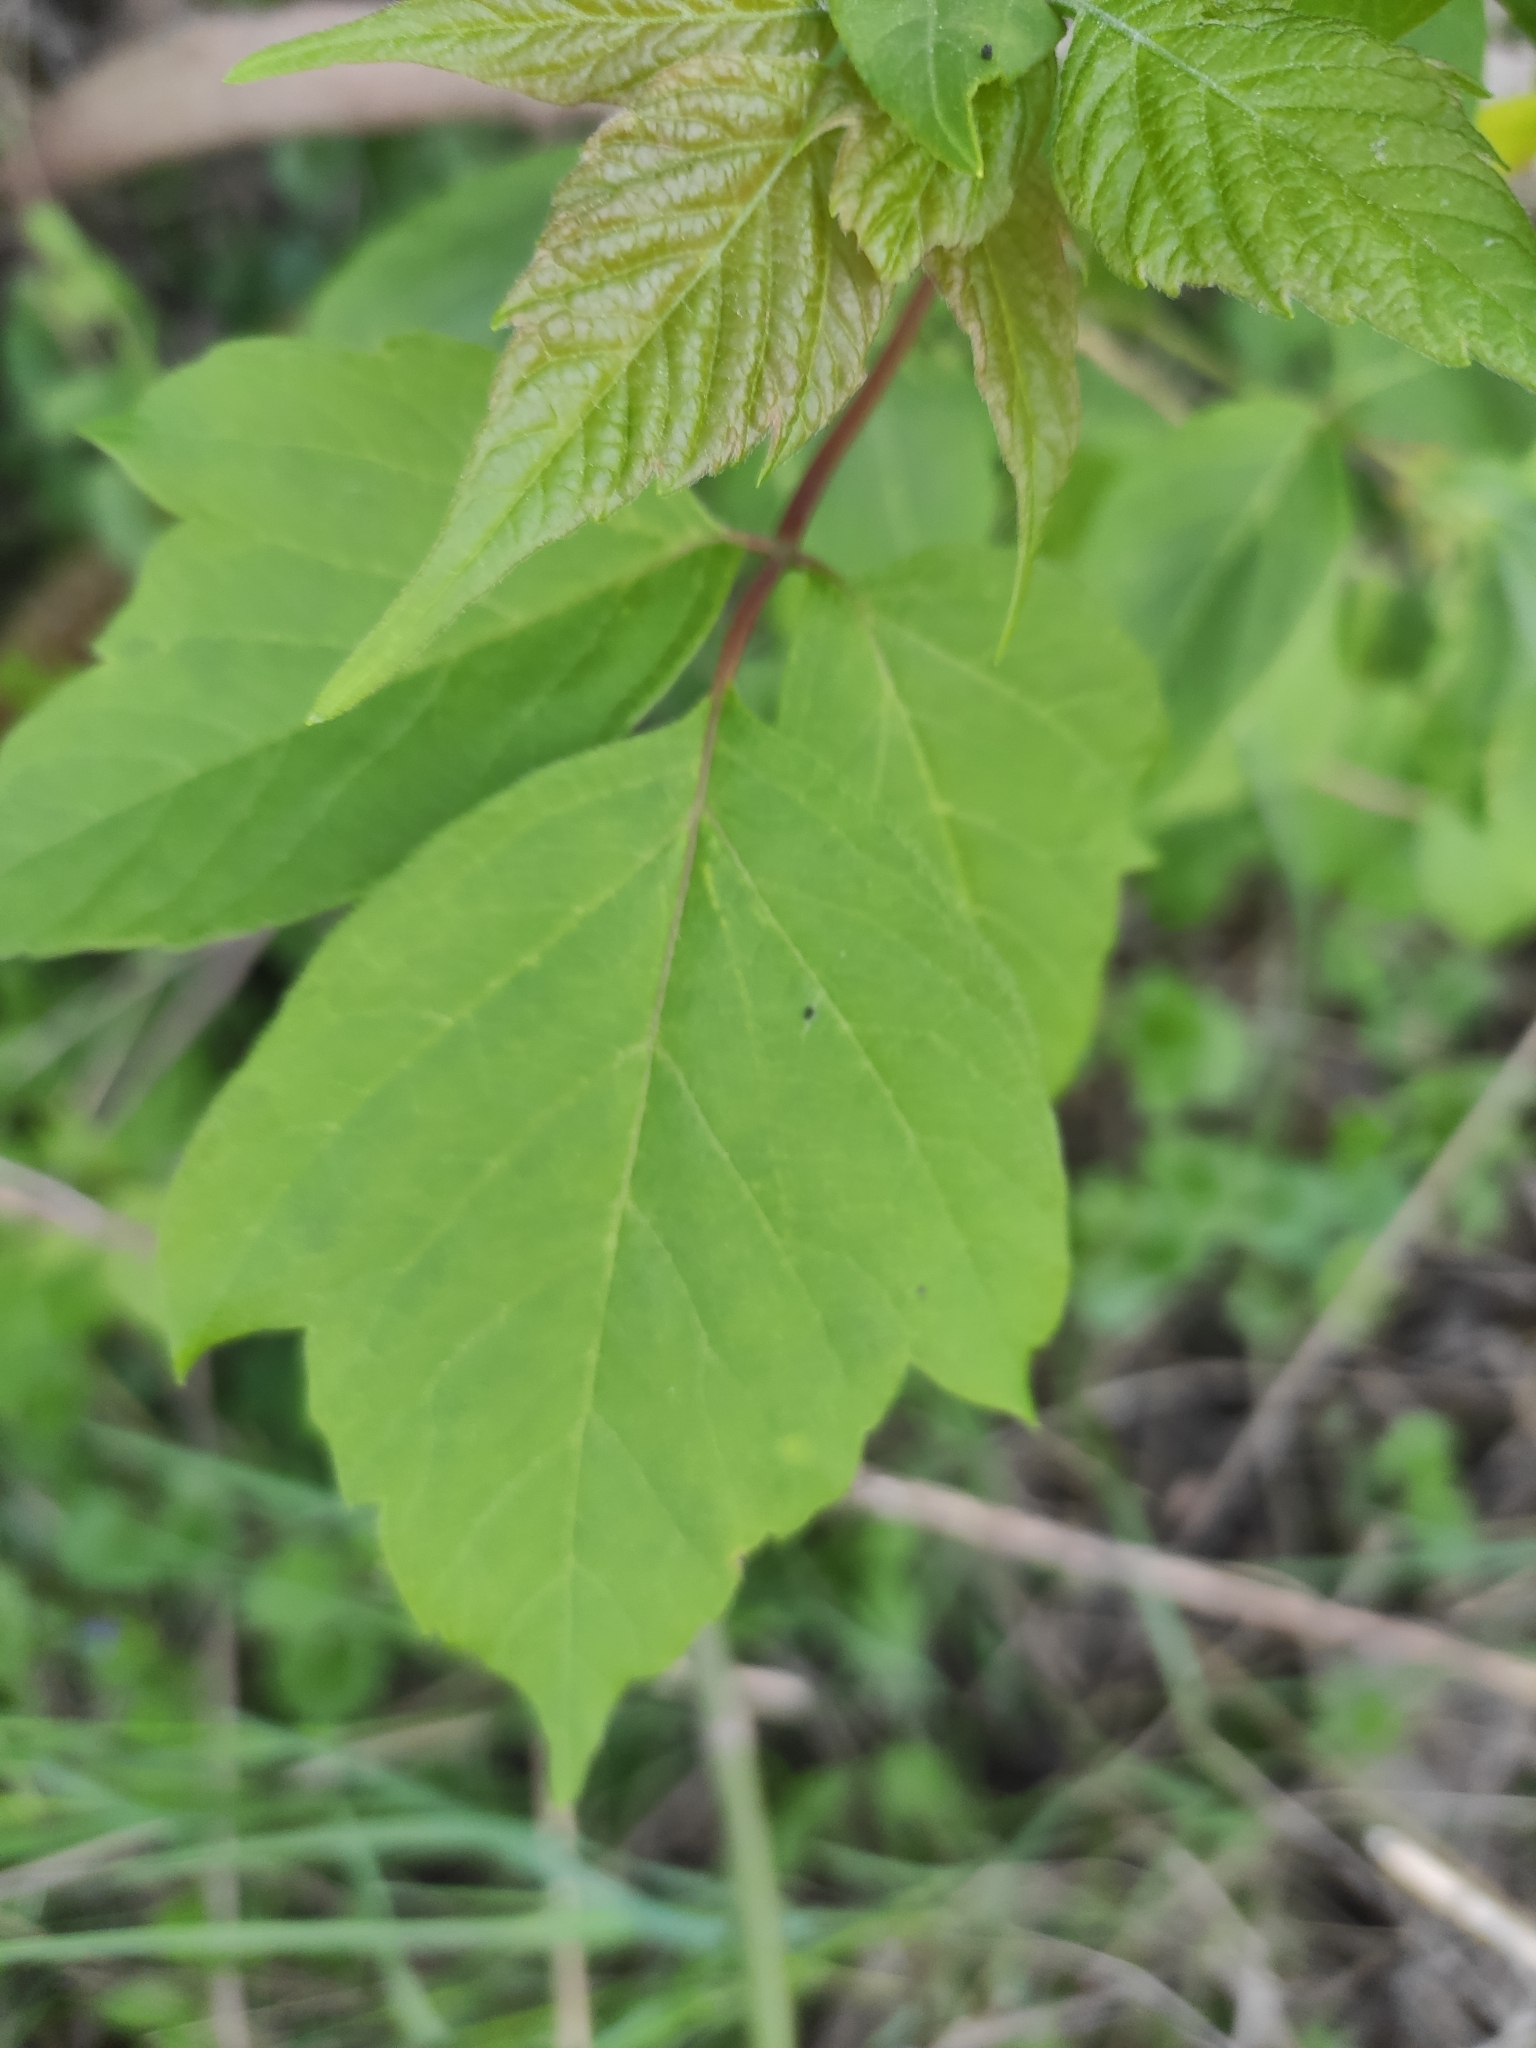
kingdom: Plantae
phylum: Tracheophyta
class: Magnoliopsida
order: Sapindales
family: Sapindaceae
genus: Acer
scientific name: Acer negundo
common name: Ashleaf maple
